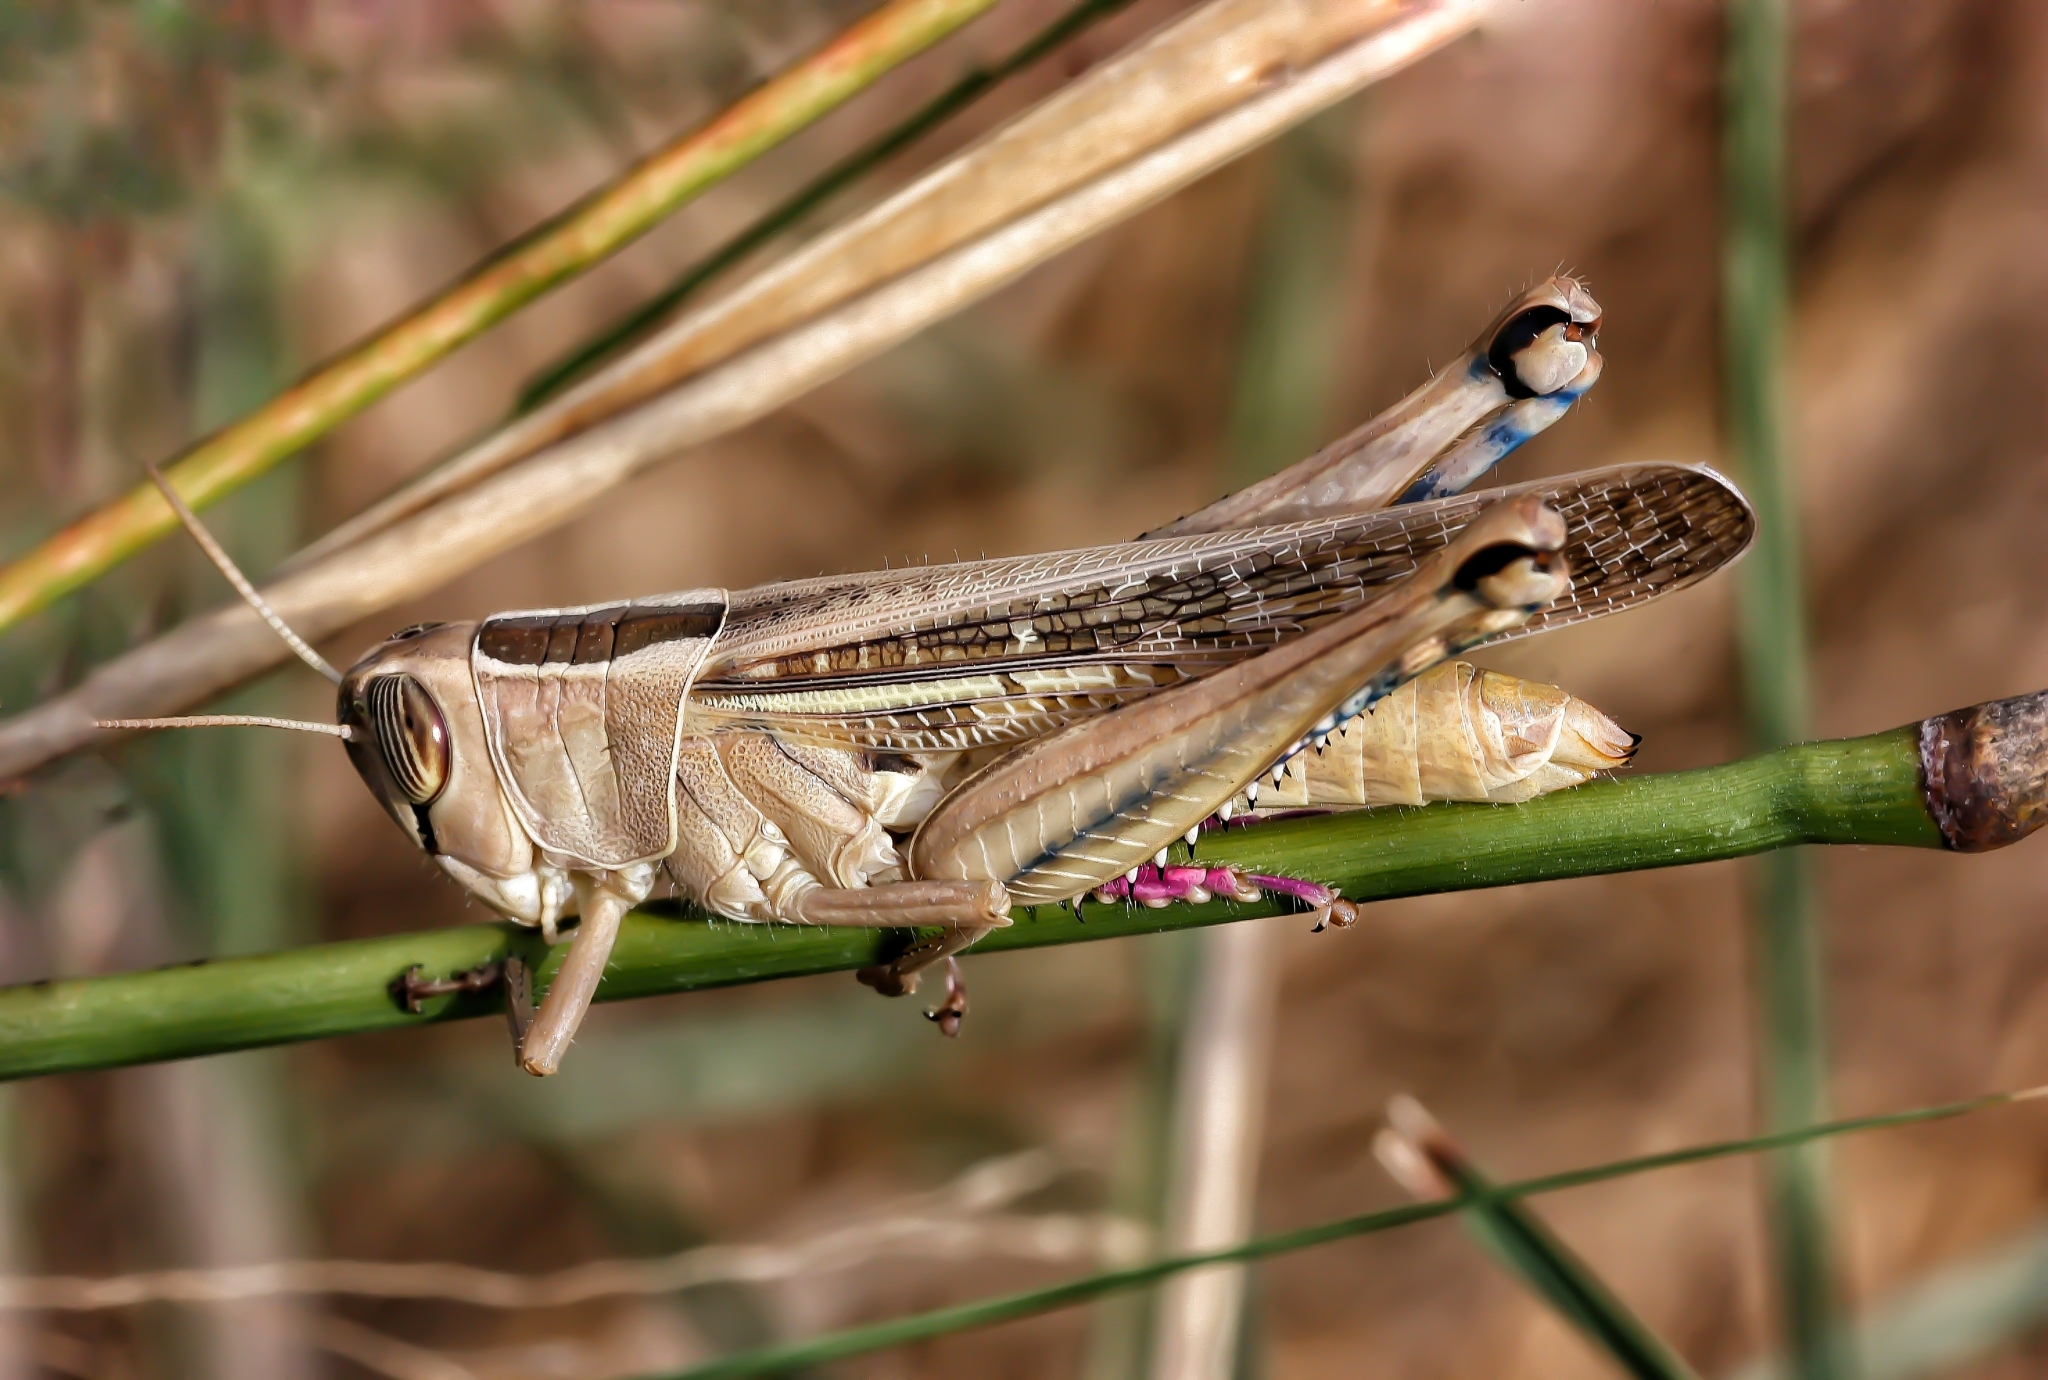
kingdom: Animalia
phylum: Arthropoda
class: Insecta
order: Orthoptera
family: Acrididae
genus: Eyprepocnemis
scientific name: Eyprepocnemis plorans
